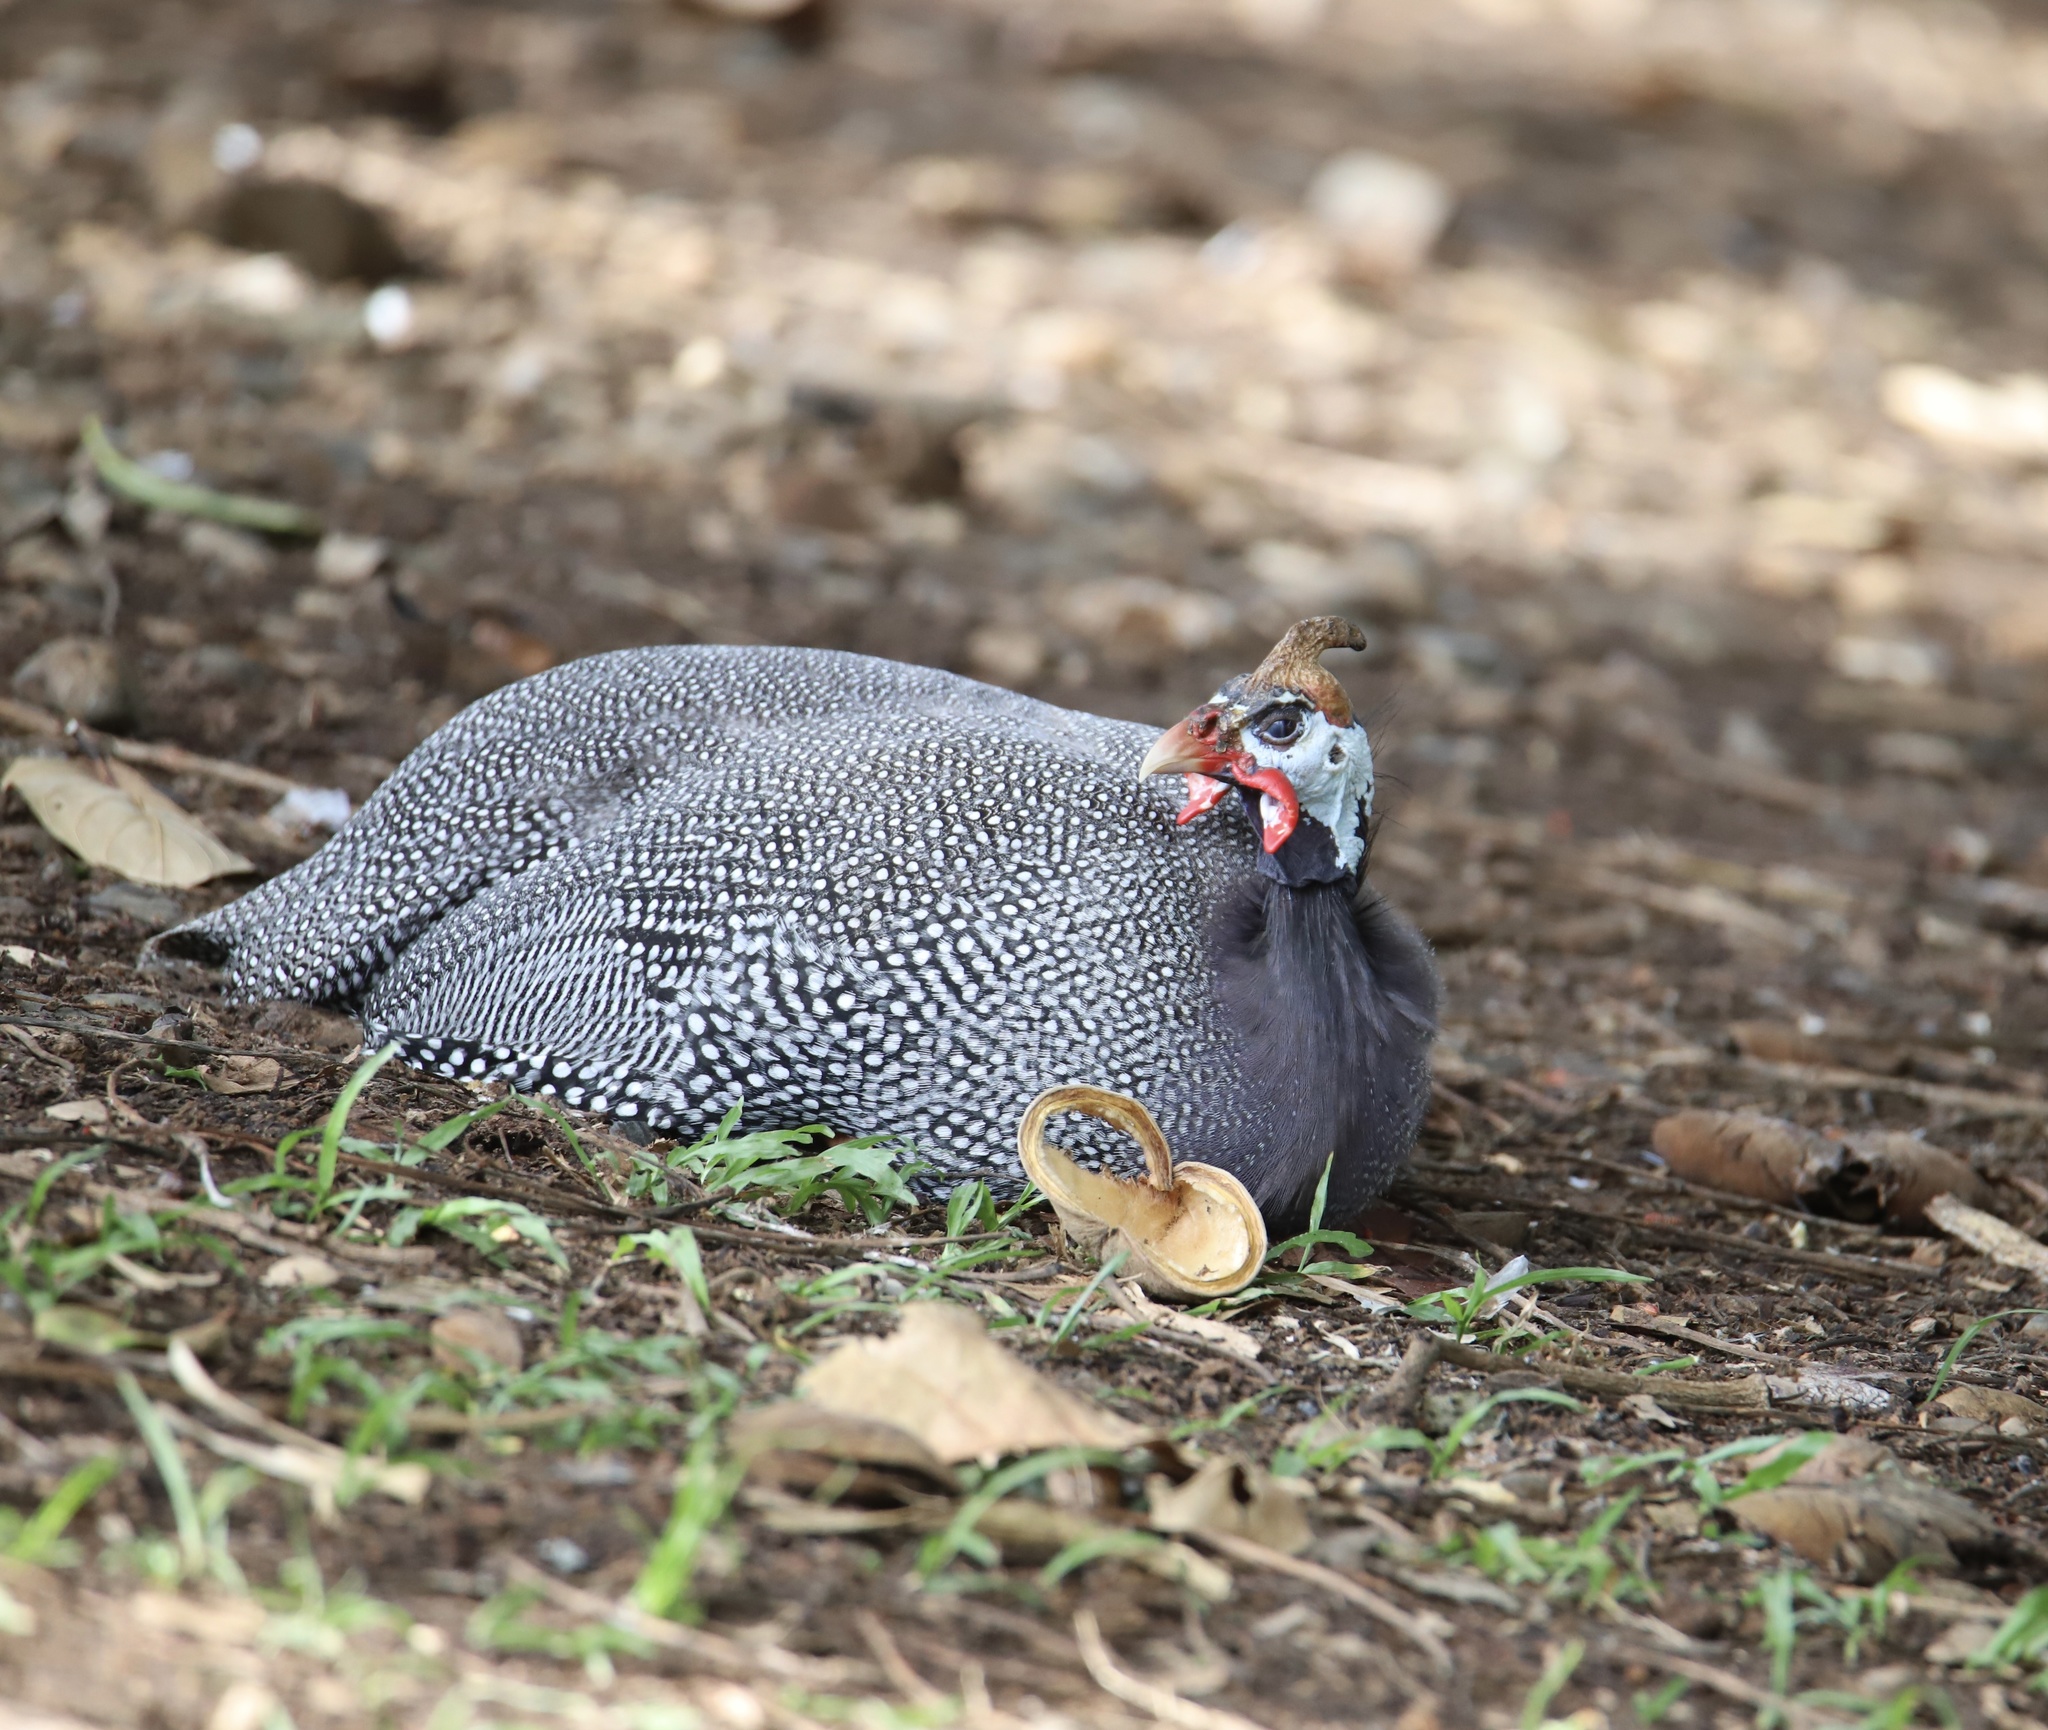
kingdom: Animalia
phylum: Chordata
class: Aves
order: Galliformes
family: Numididae
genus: Numida
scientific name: Numida meleagris
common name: Helmeted guineafowl
